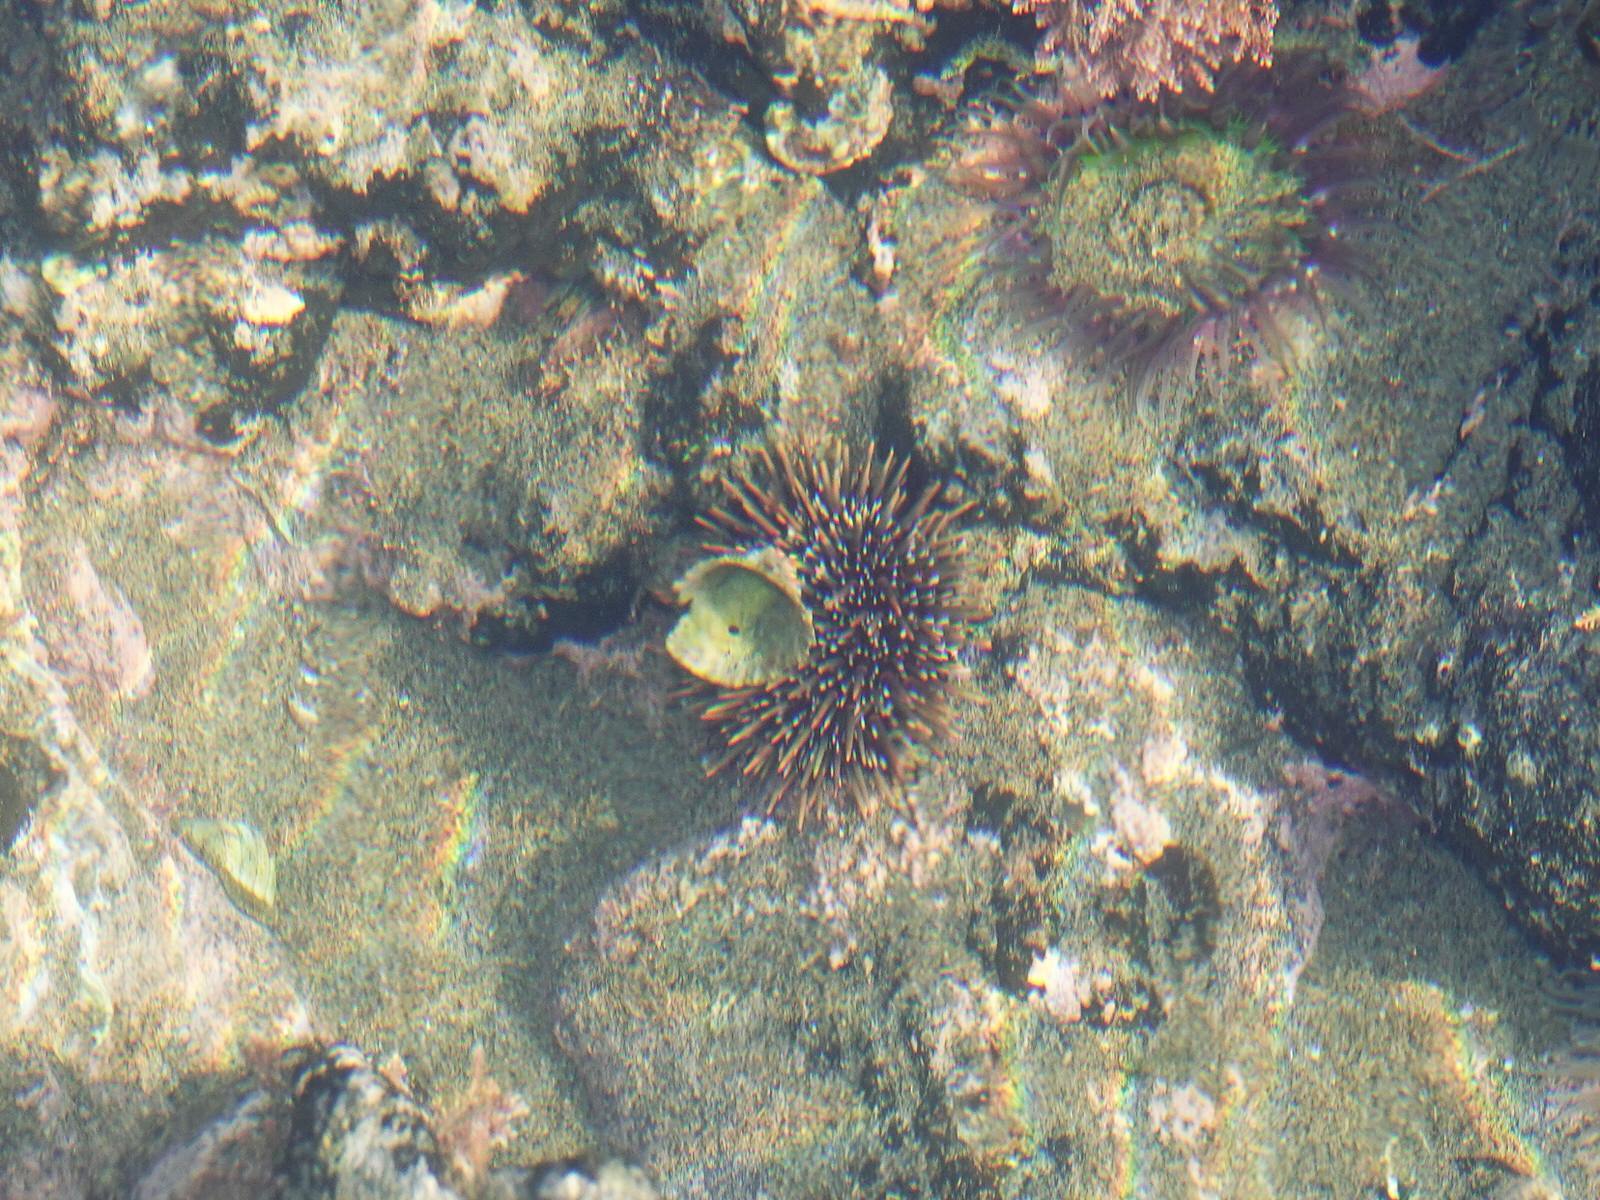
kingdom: Animalia
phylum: Echinodermata
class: Echinoidea
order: Camarodonta
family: Echinometridae
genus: Evechinus
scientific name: Evechinus chloroticus
